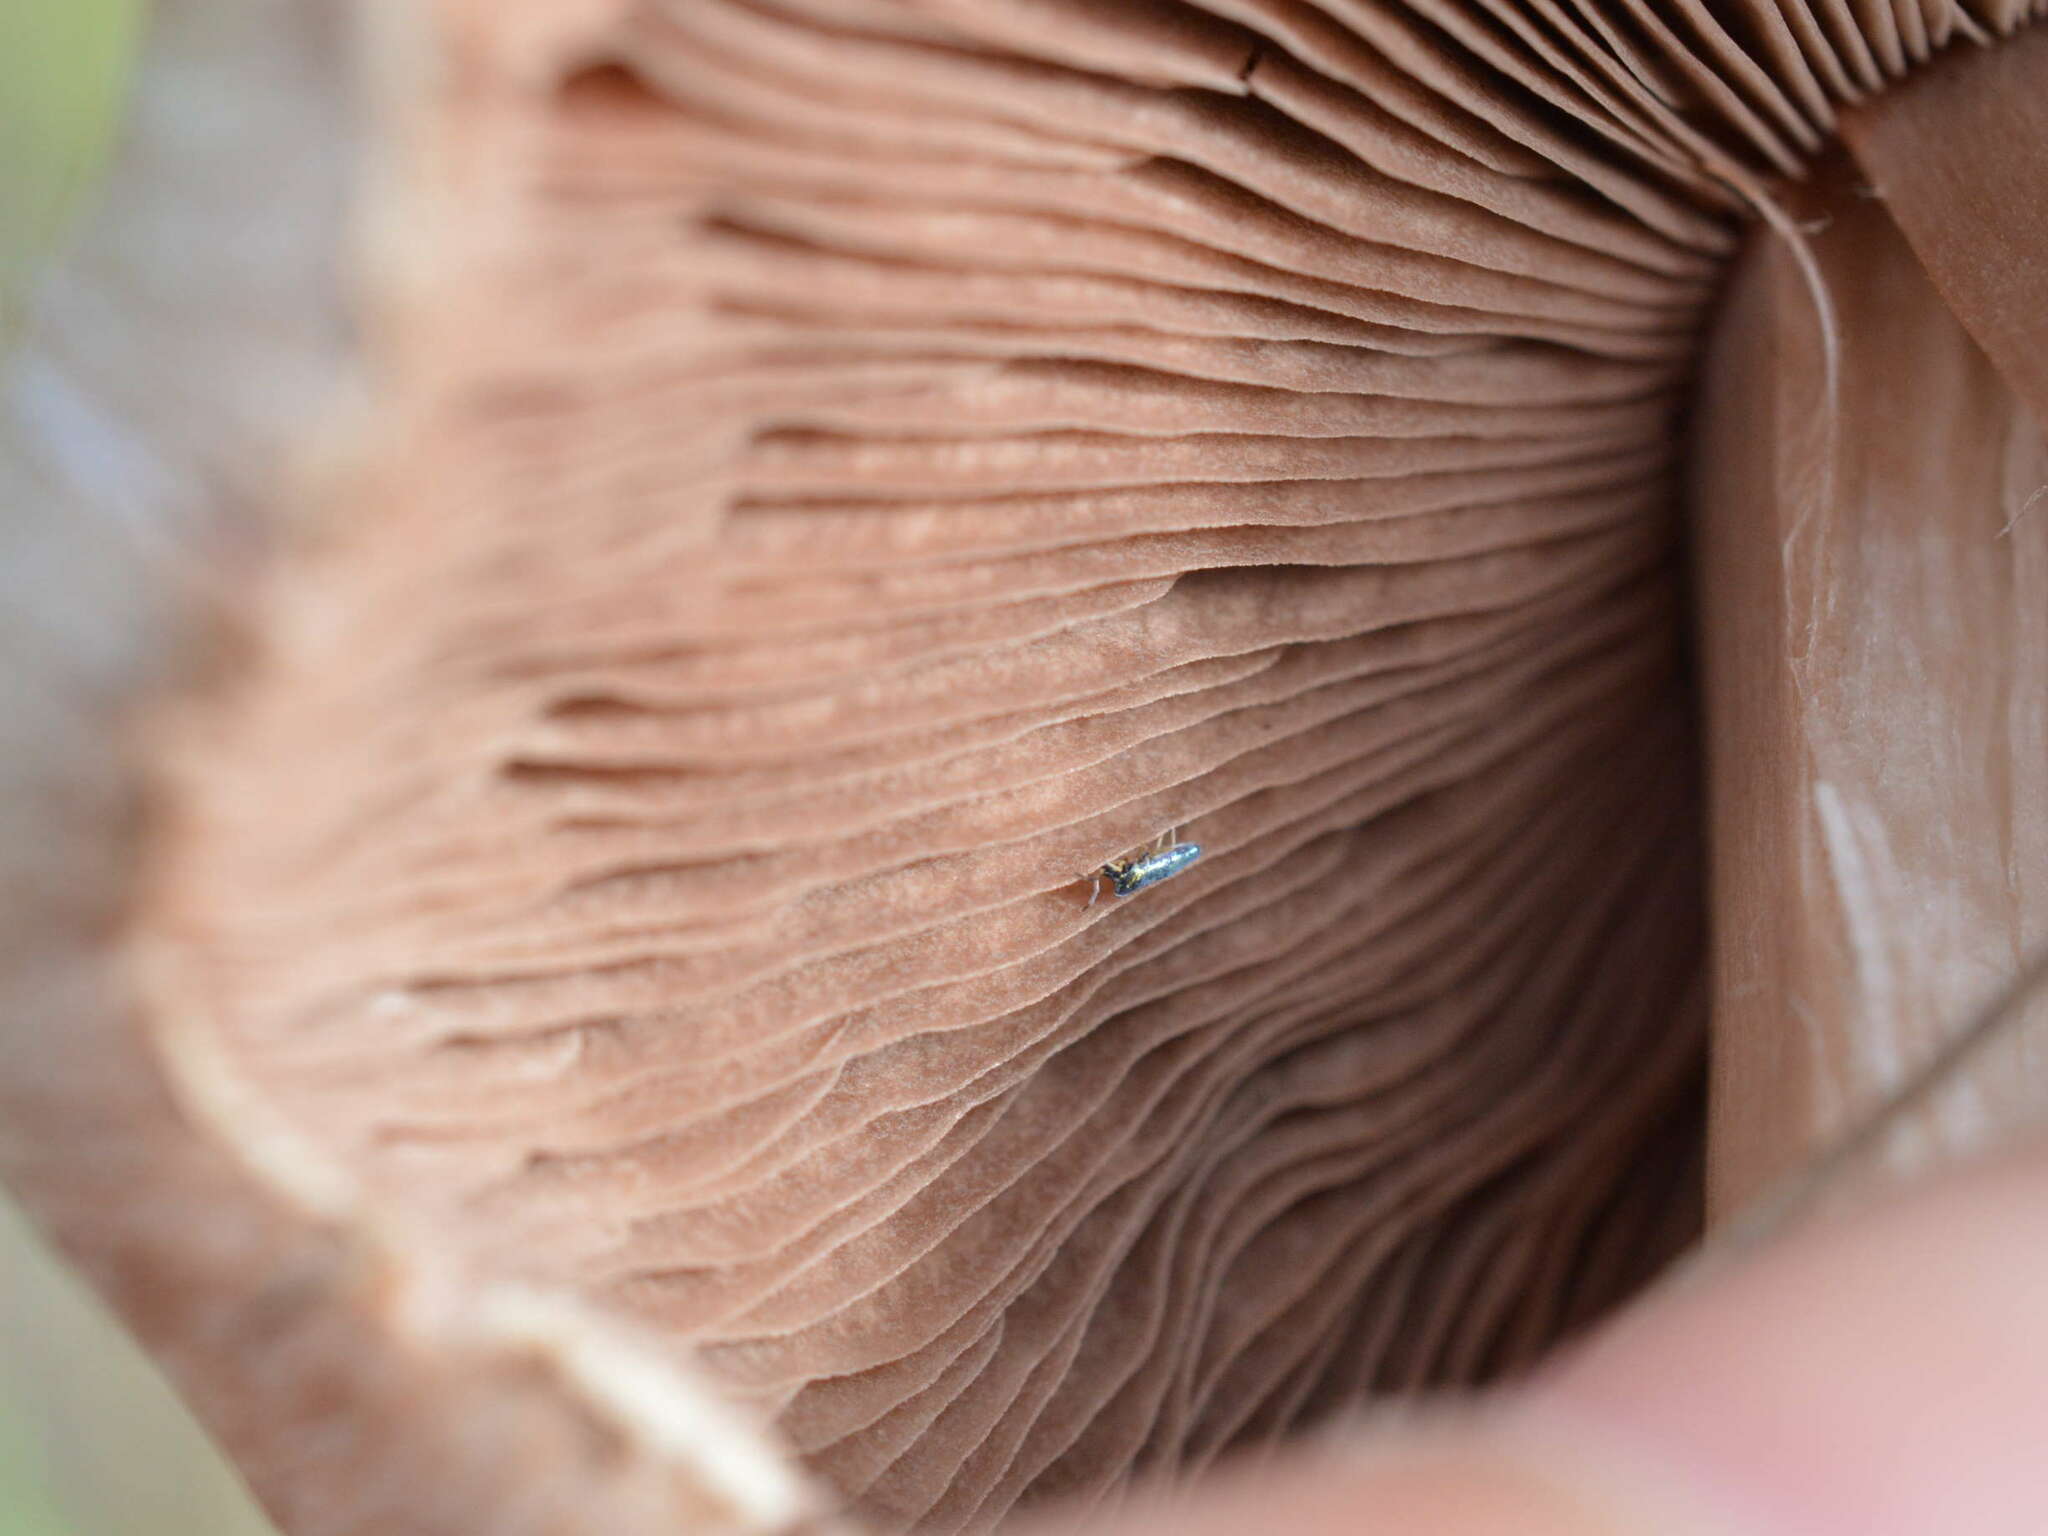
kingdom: Animalia
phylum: Arthropoda
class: Collembola
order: Entomobryomorpha
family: Entomobryidae
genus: Lepidocyrtus
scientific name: Lepidocyrtus paradoxus
